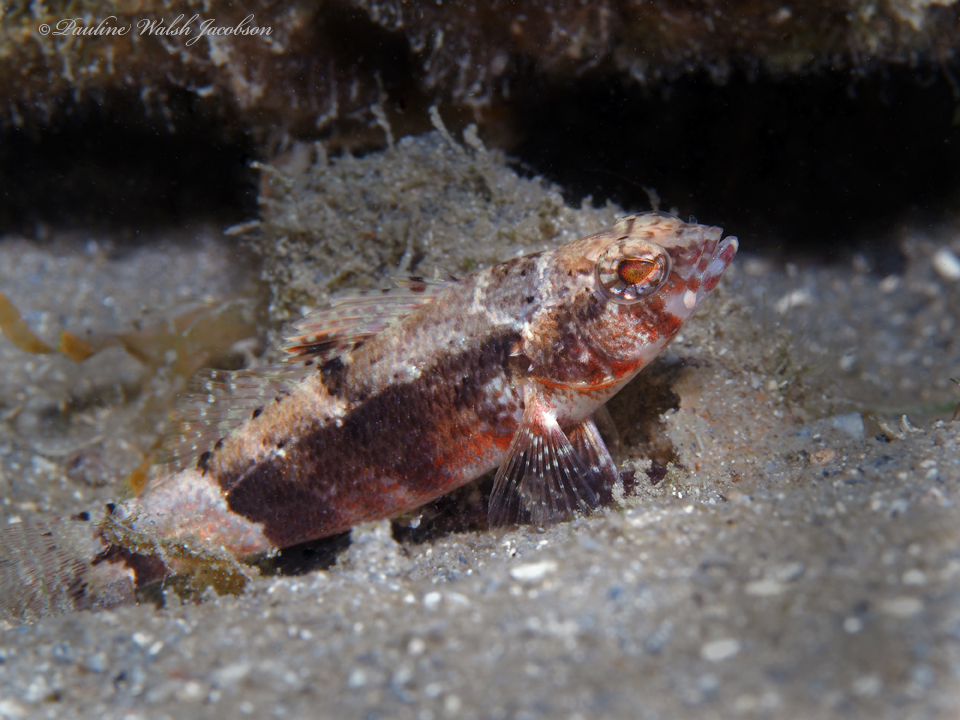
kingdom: Animalia
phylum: Chordata
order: Perciformes
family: Serranidae
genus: Serraniculus
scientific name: Serraniculus pumilio
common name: Pygmy sea bass
